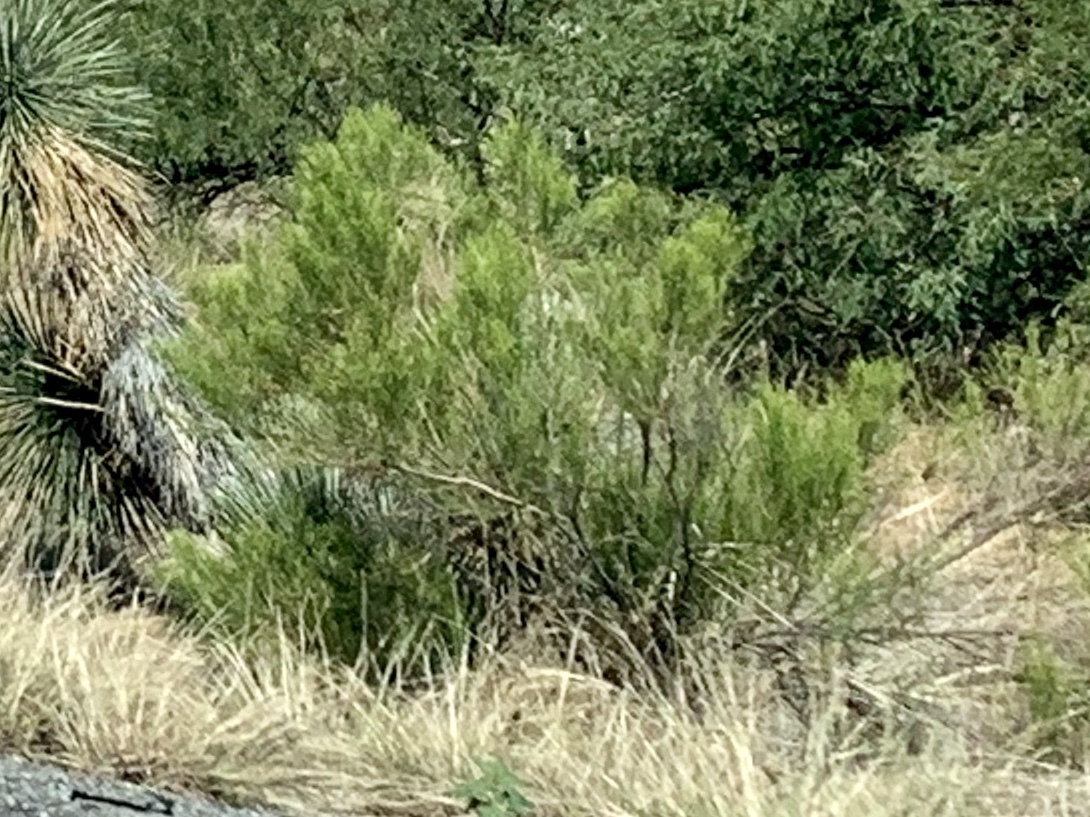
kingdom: Plantae
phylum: Tracheophyta
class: Magnoliopsida
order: Asterales
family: Asteraceae
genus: Baccharis
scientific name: Baccharis sarothroides
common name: Desert-broom
